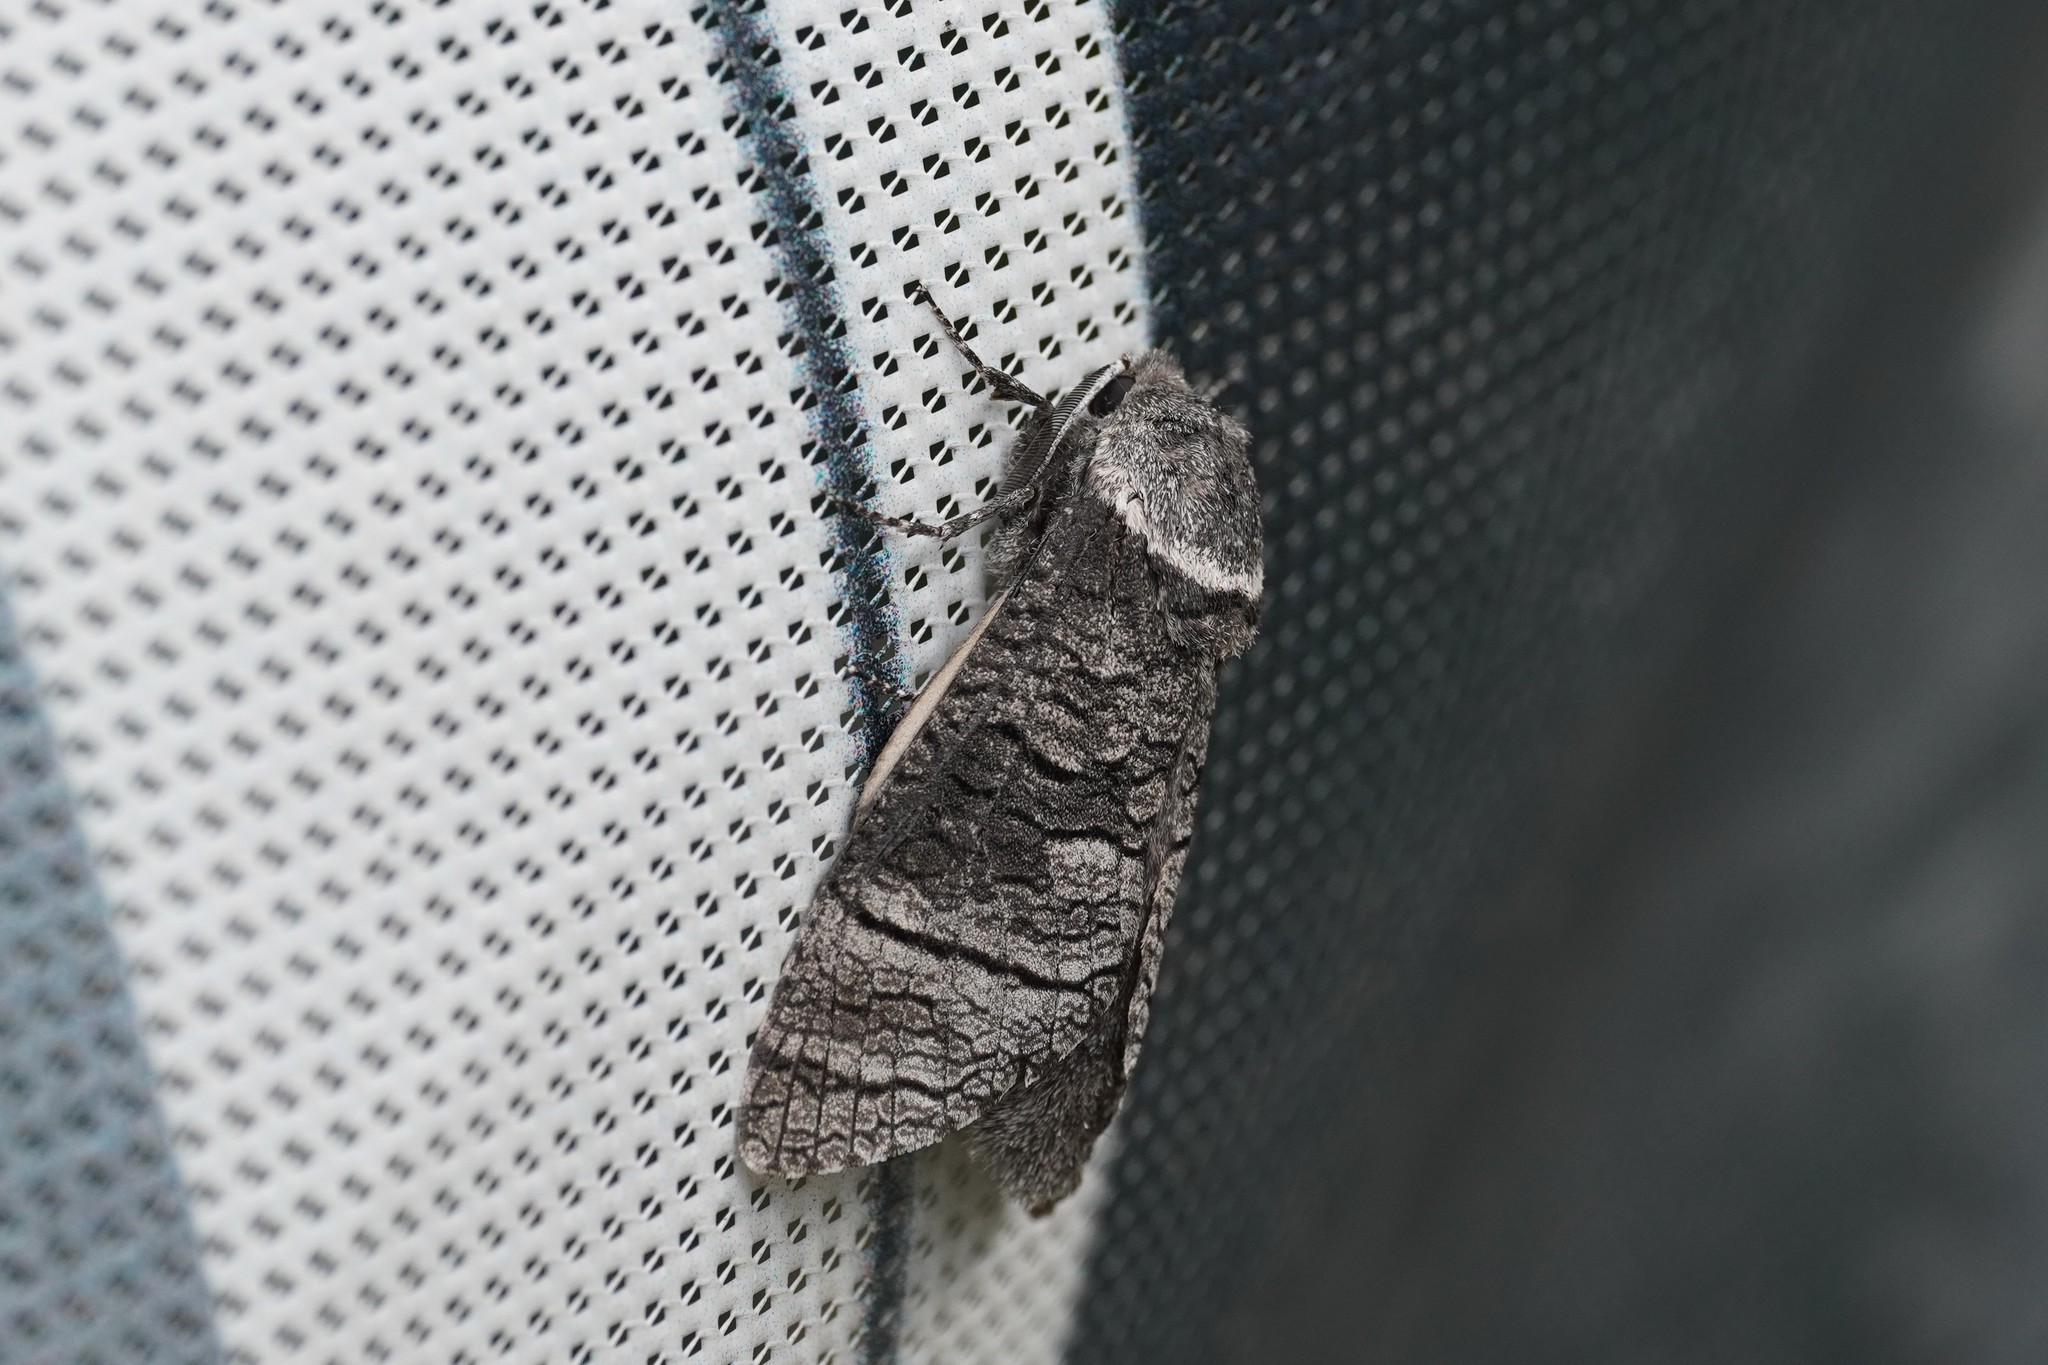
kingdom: Animalia
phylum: Arthropoda
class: Insecta
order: Lepidoptera
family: Cossidae
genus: Acossus
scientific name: Acossus terebra
